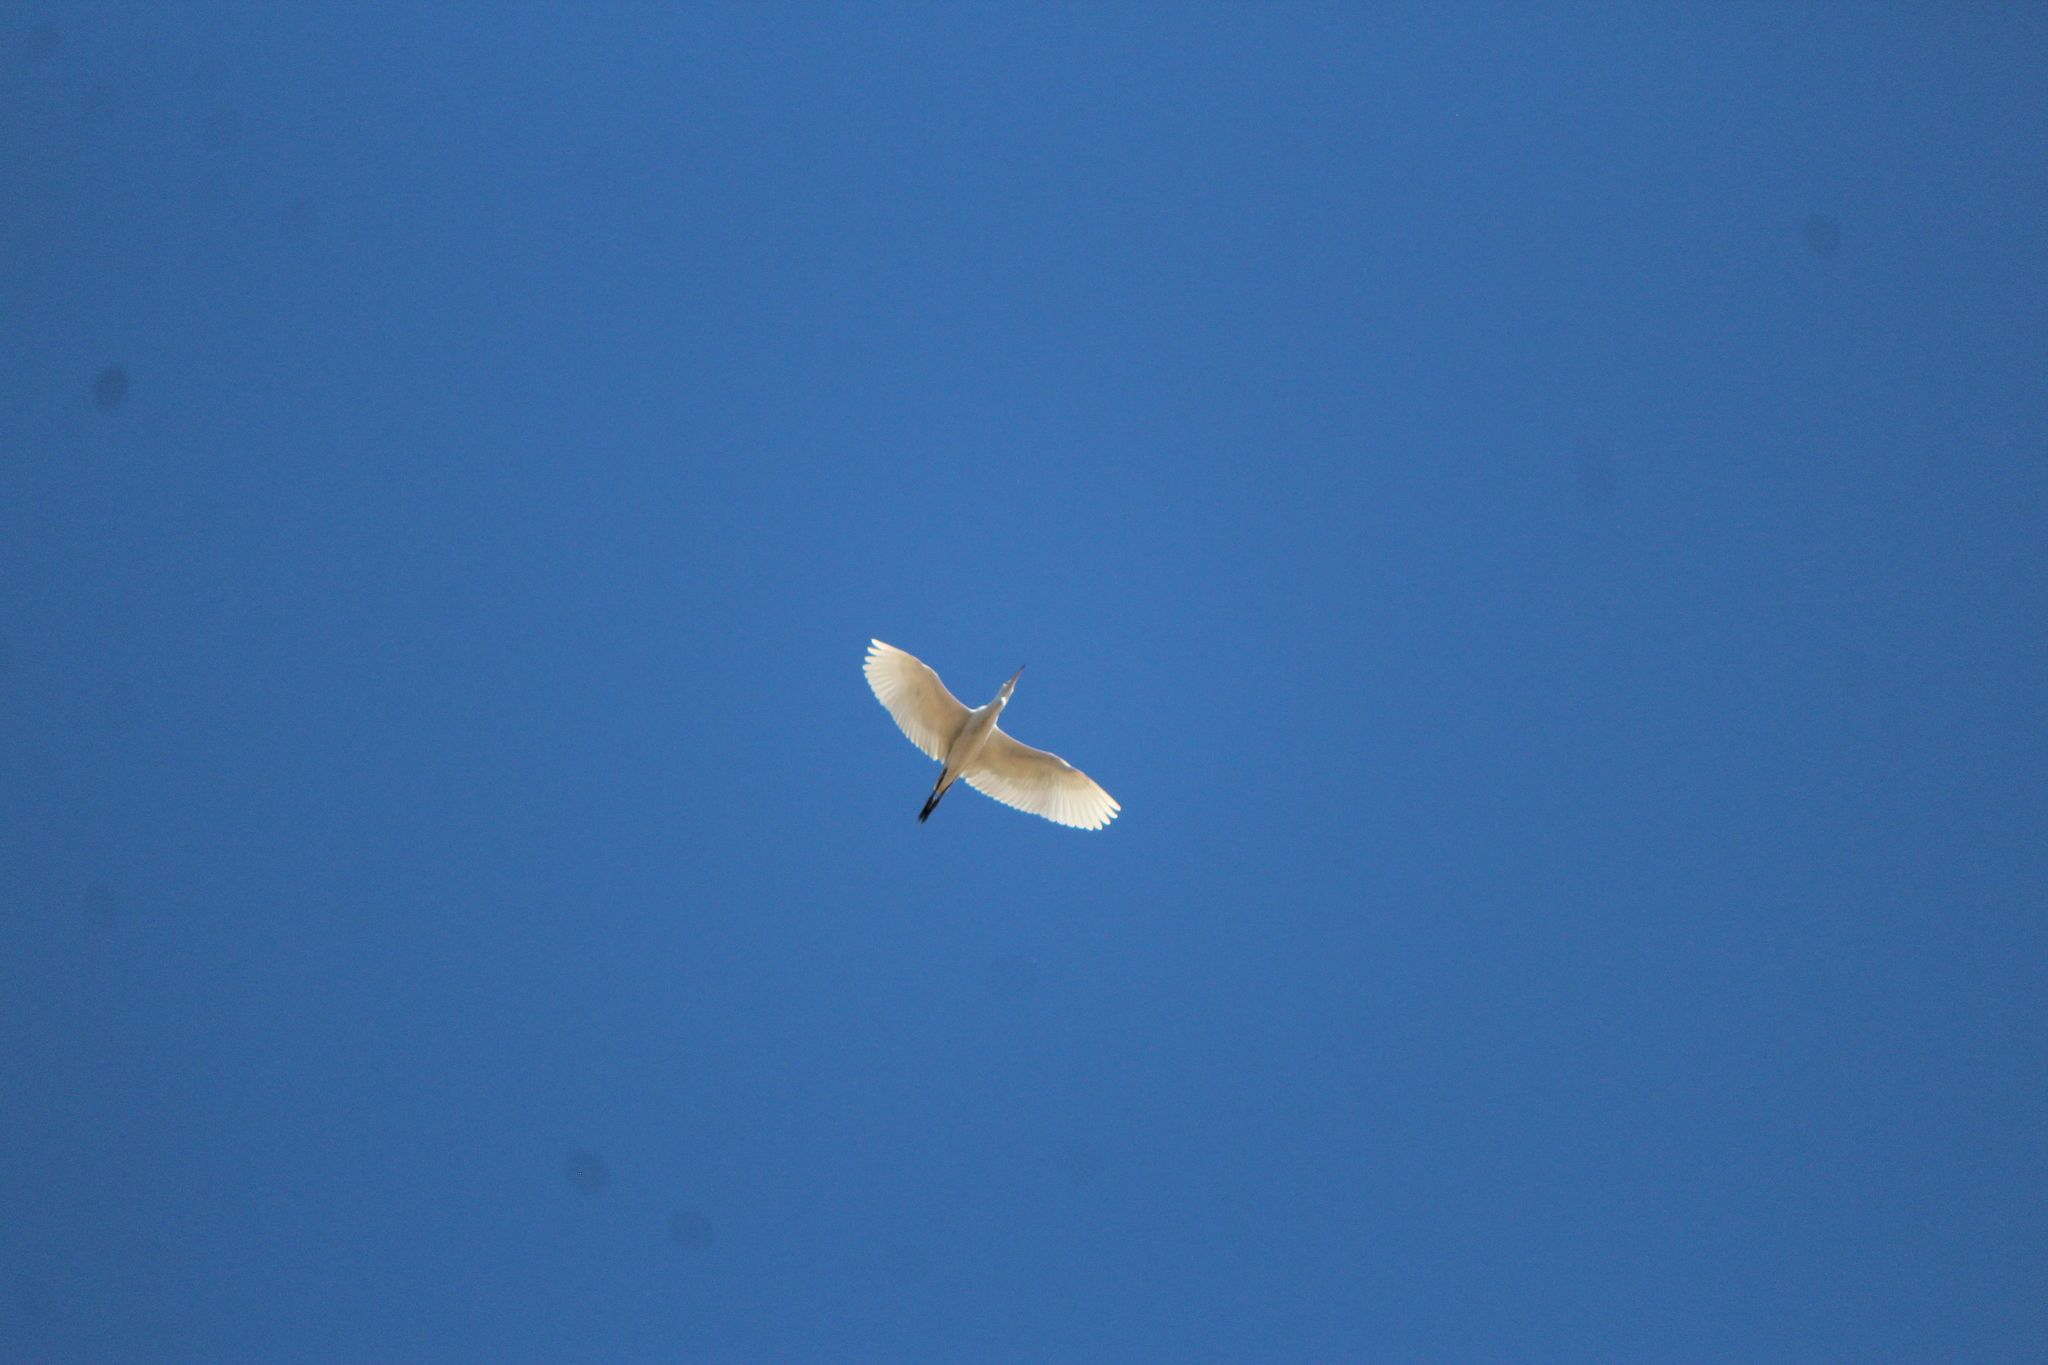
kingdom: Animalia
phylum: Chordata
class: Aves
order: Pelecaniformes
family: Ardeidae
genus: Bubulcus
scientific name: Bubulcus ibis
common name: Cattle egret
